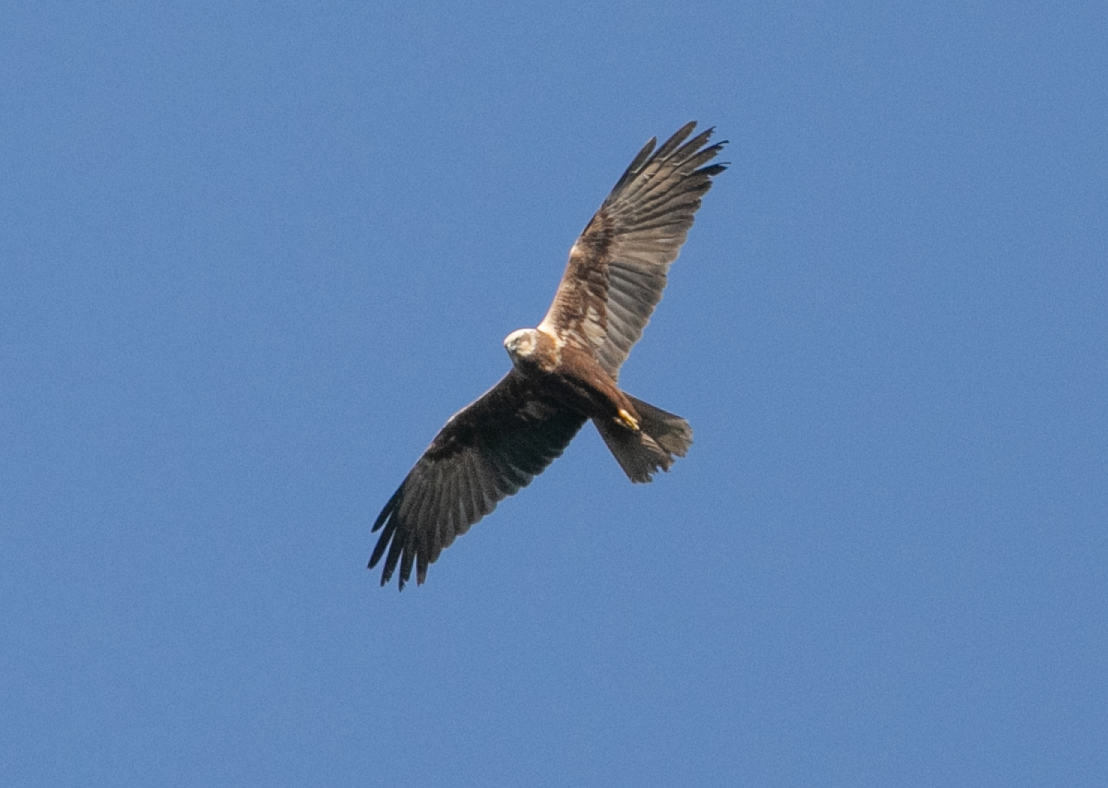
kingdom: Animalia
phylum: Chordata
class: Aves
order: Accipitriformes
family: Accipitridae
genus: Circus
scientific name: Circus aeruginosus
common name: Western marsh harrier
